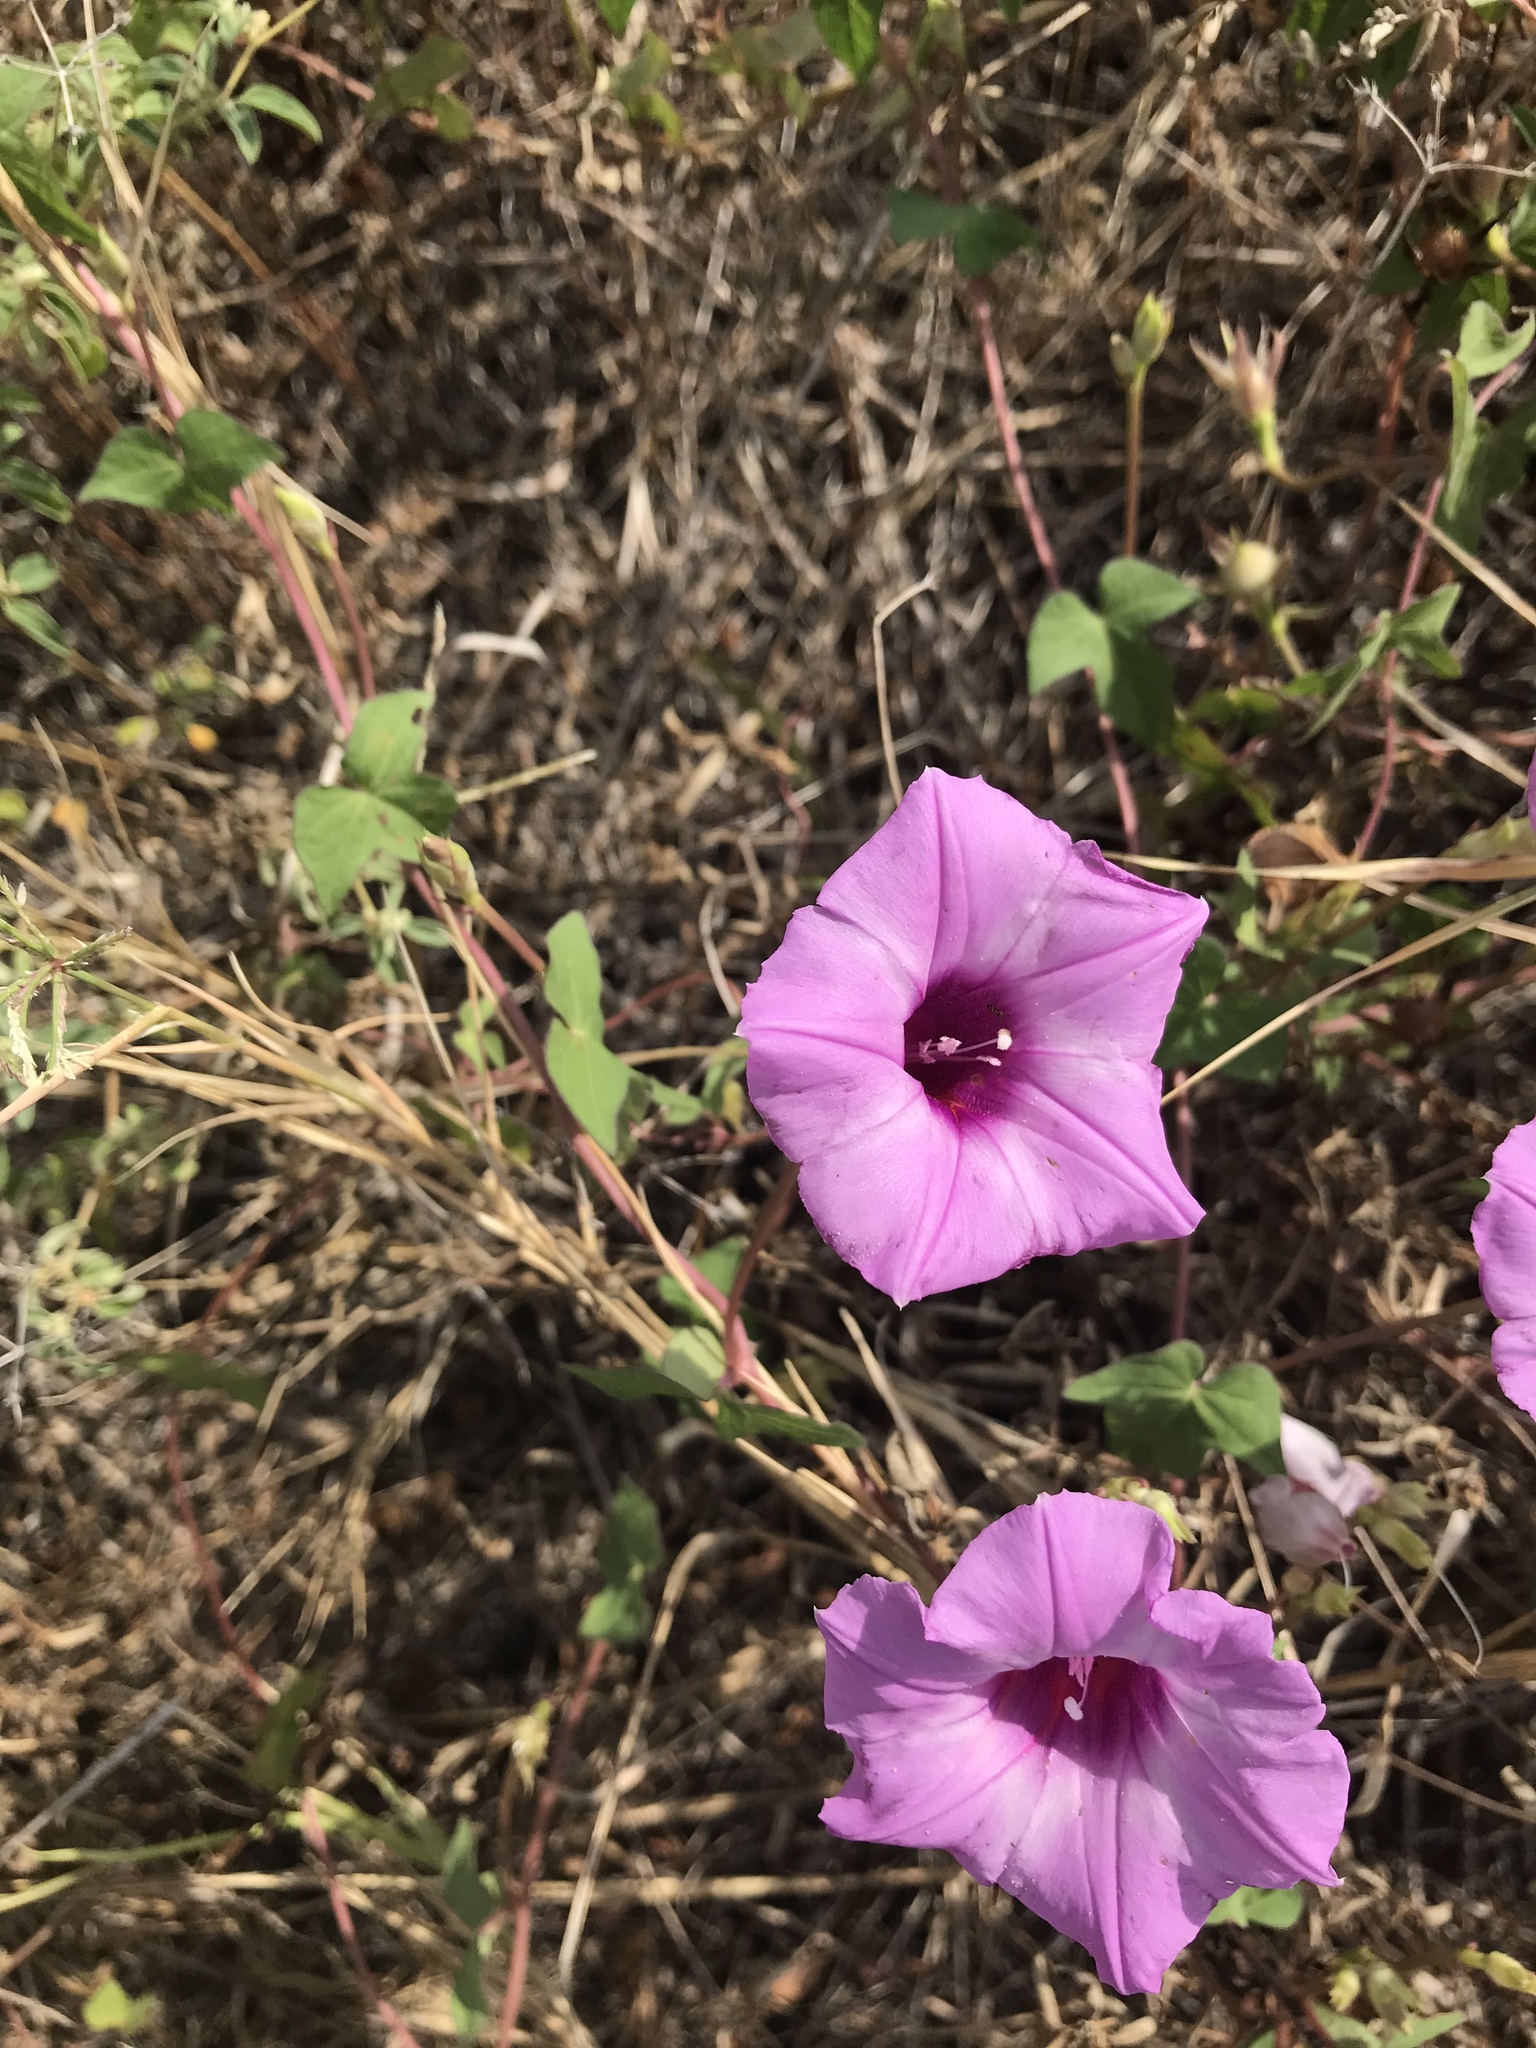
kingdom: Plantae
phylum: Tracheophyta
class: Magnoliopsida
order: Solanales
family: Convolvulaceae
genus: Ipomoea
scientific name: Ipomoea cordatotriloba
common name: Cotton morning glory
